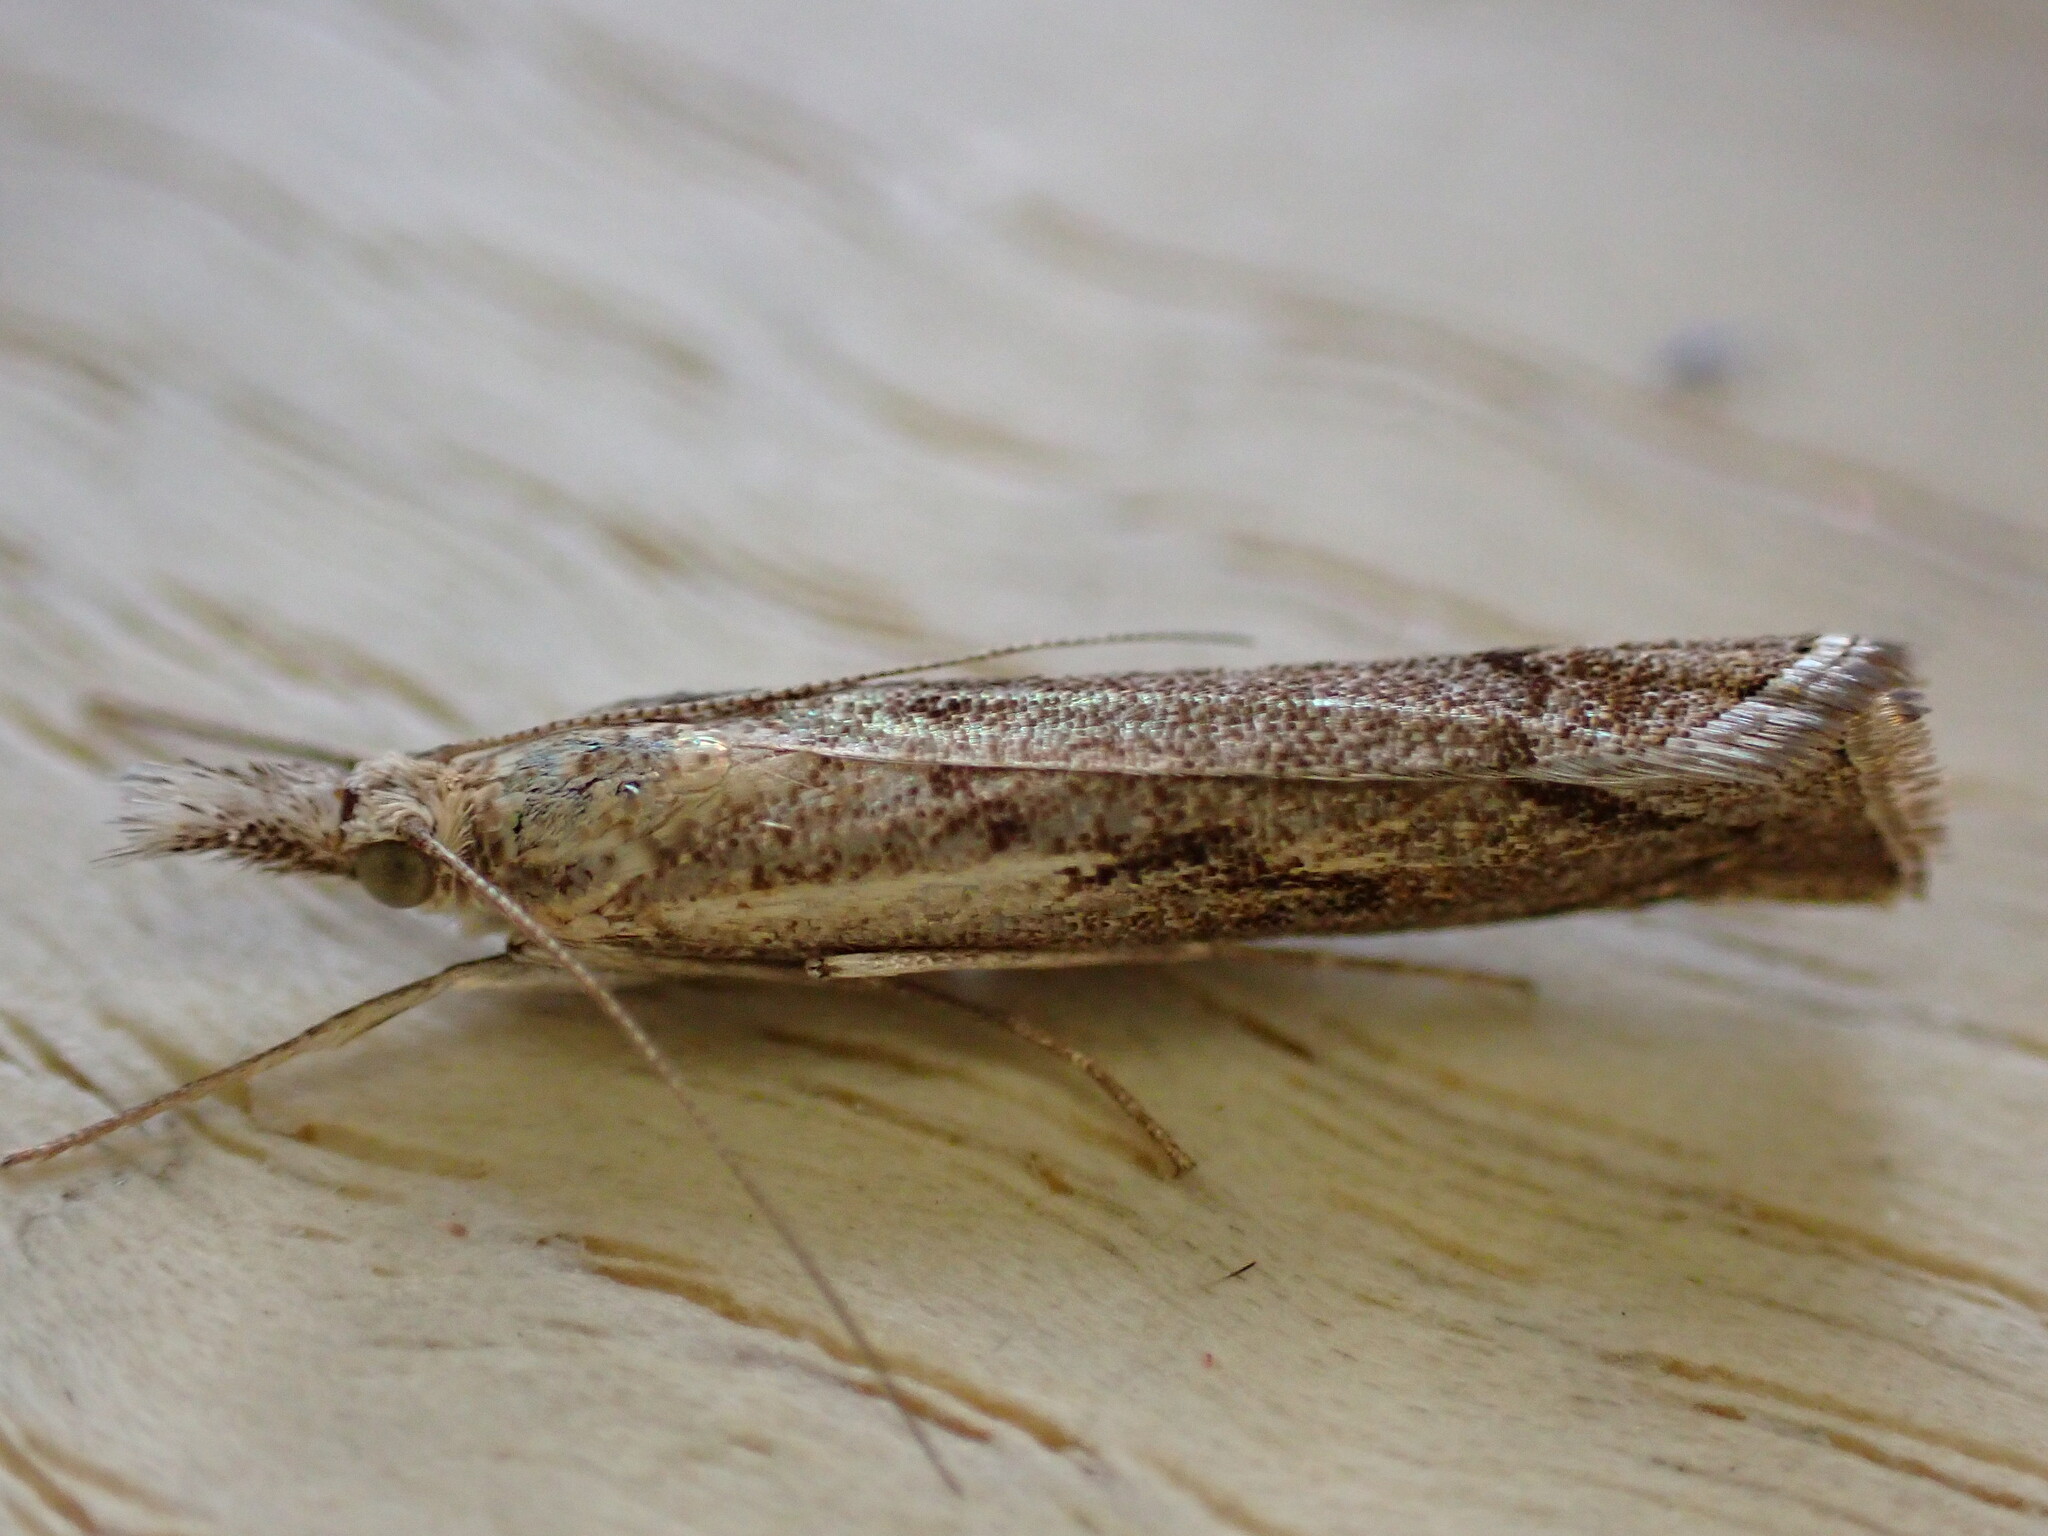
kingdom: Animalia
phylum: Arthropoda
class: Insecta
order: Lepidoptera
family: Crambidae
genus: Agriphila
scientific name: Agriphila geniculea
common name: Elbow-stripe grass-veneer
